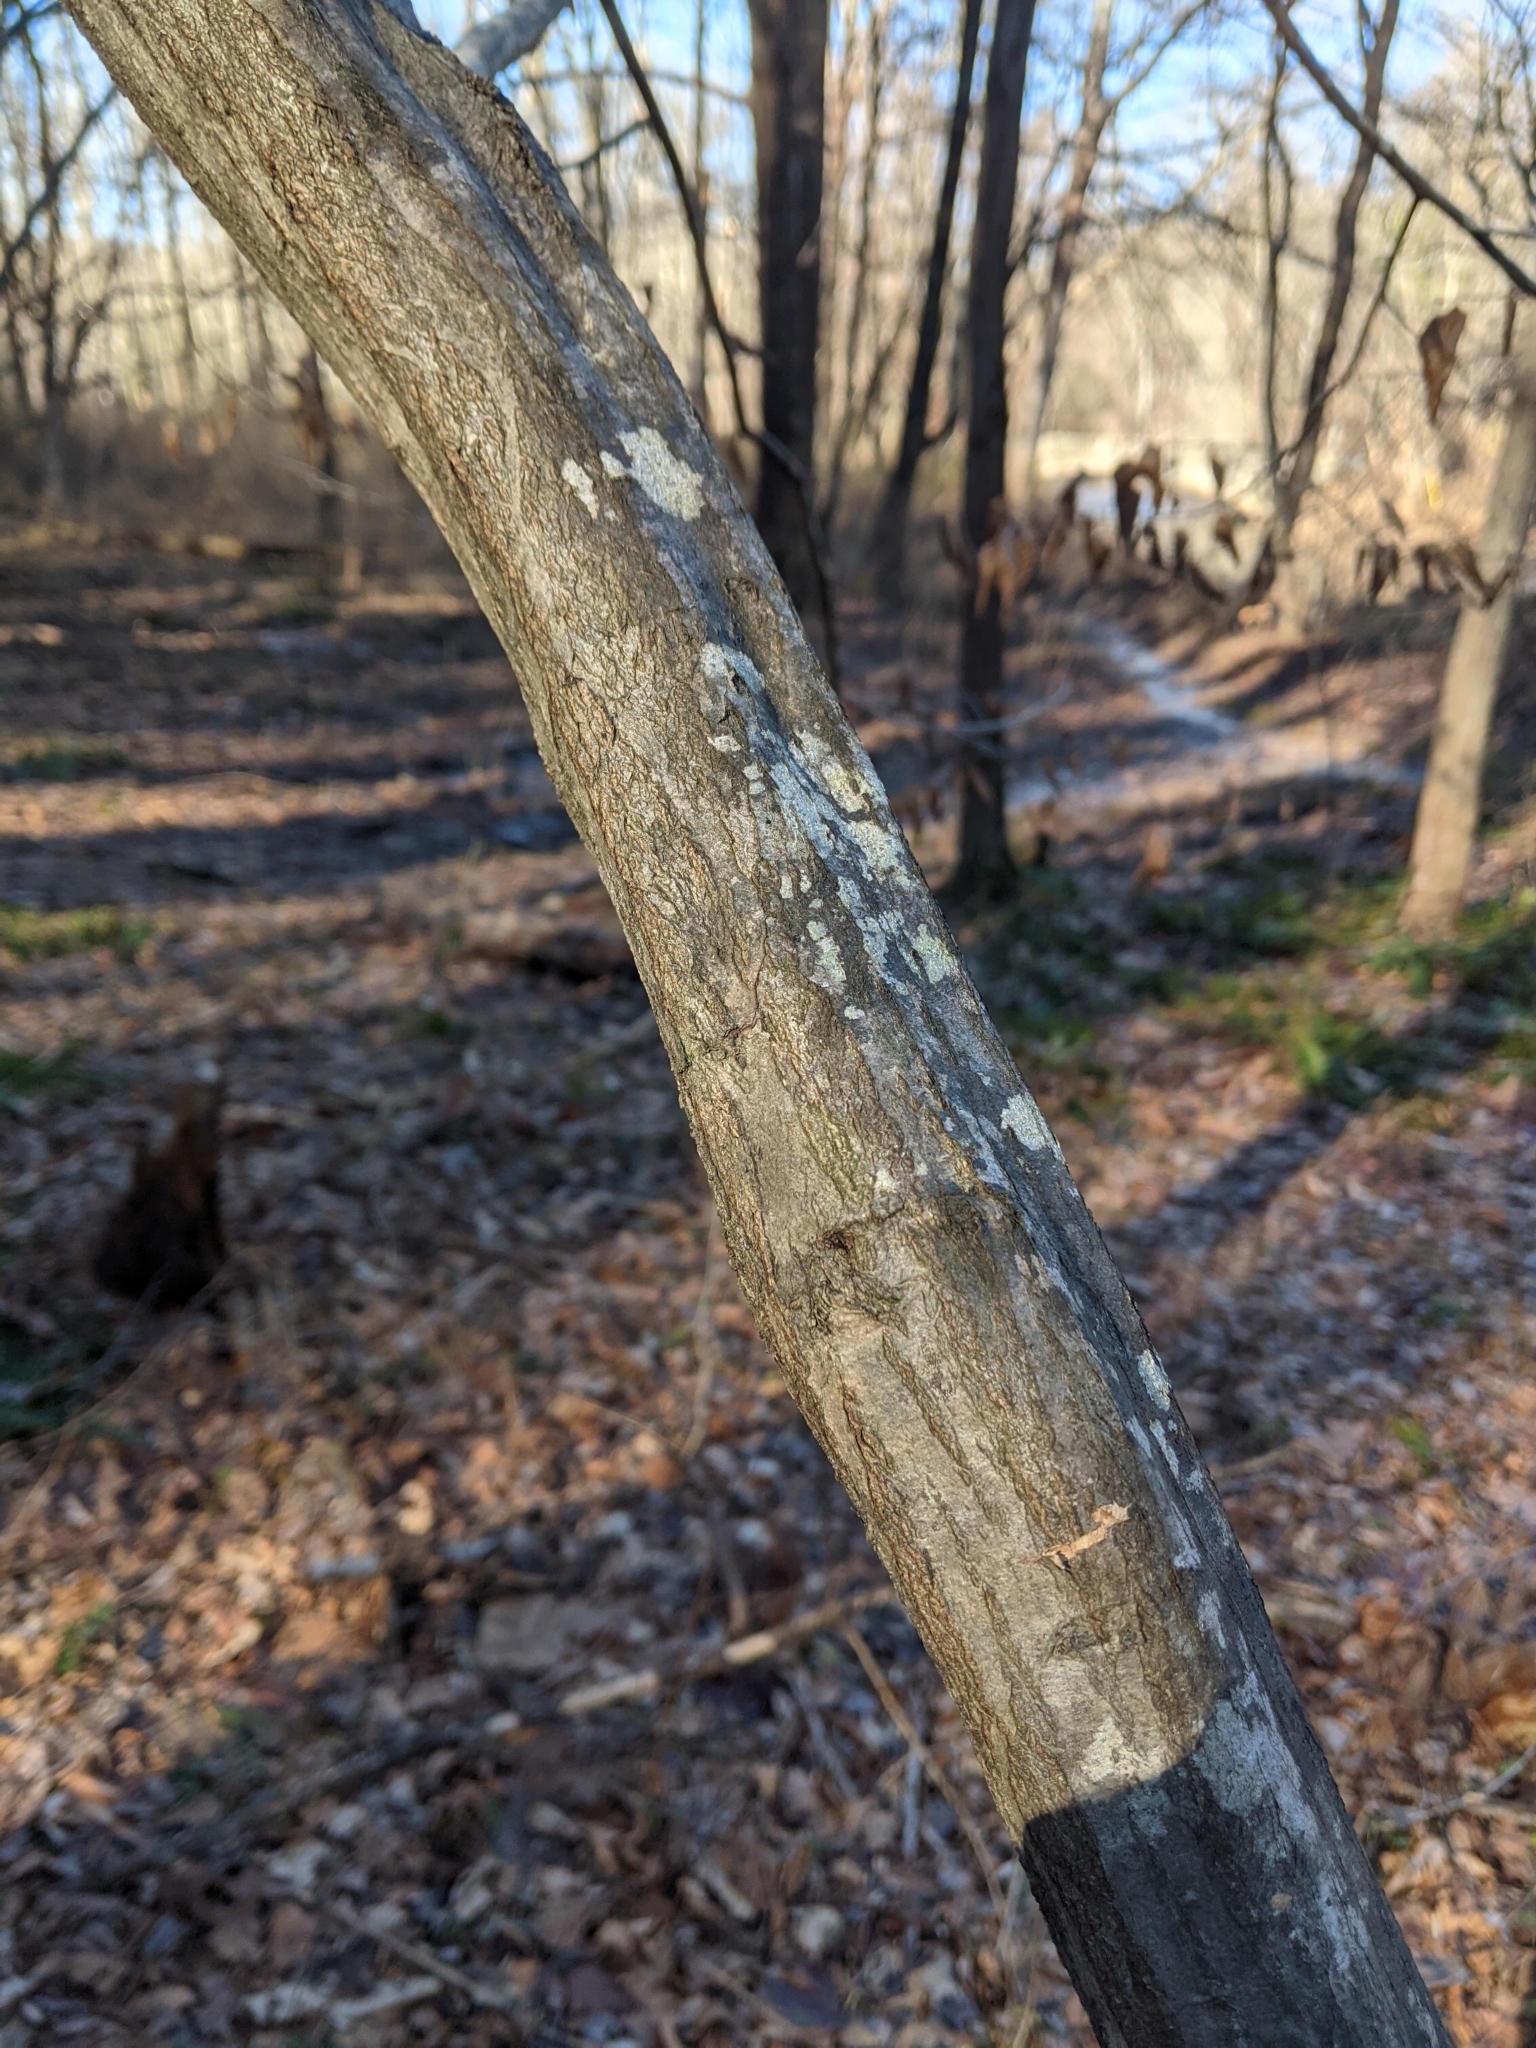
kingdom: Plantae
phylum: Tracheophyta
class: Magnoliopsida
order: Fagales
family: Betulaceae
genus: Carpinus
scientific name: Carpinus caroliniana
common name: American hornbeam
